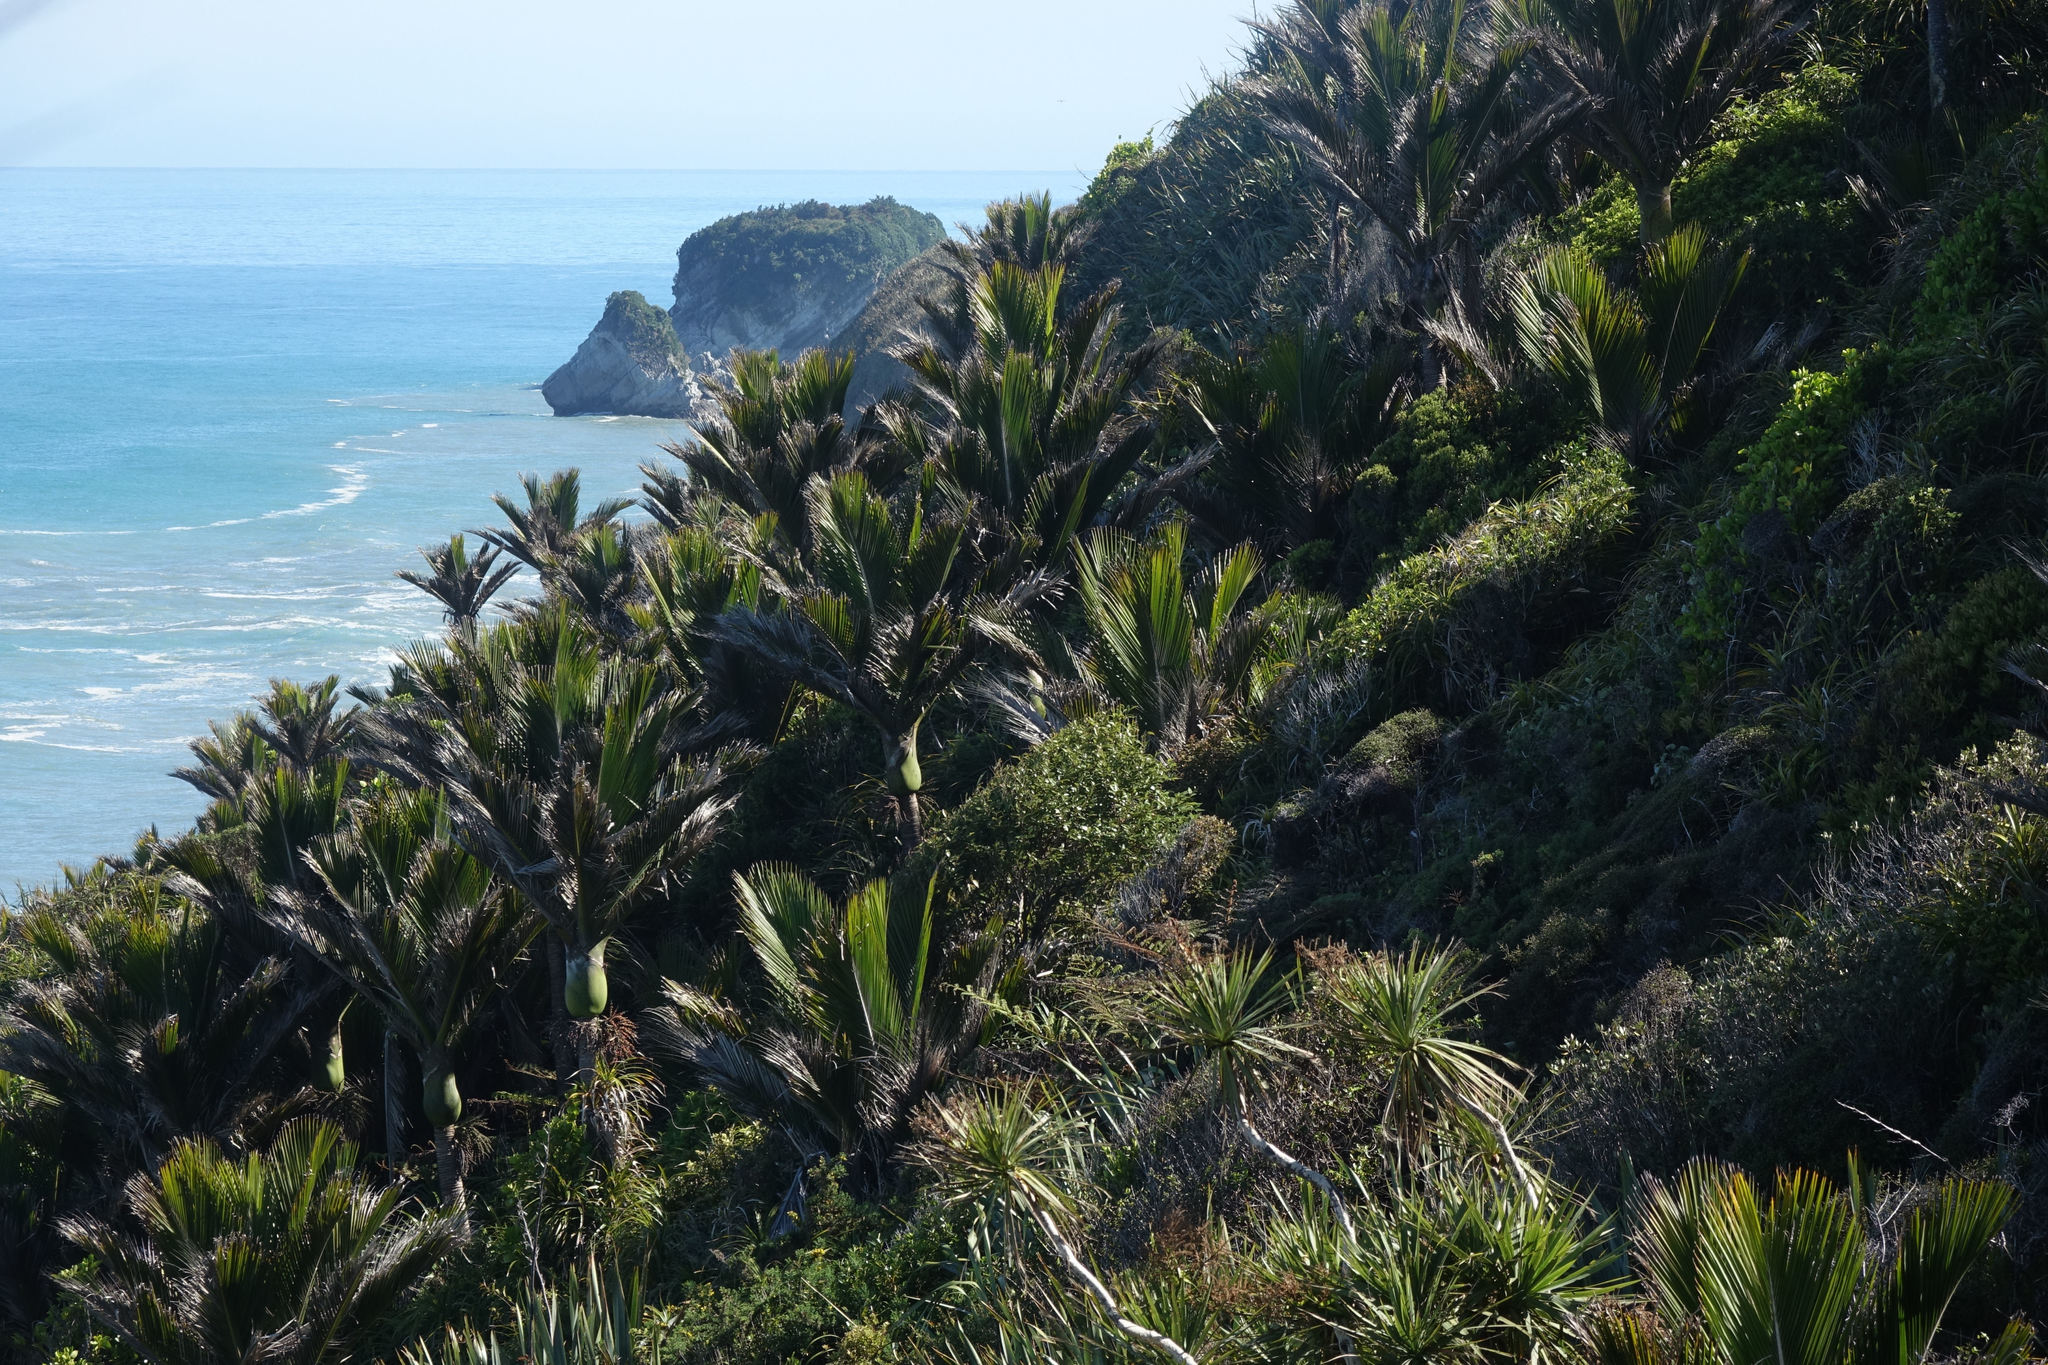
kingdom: Plantae
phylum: Tracheophyta
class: Liliopsida
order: Arecales
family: Arecaceae
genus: Rhopalostylis
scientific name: Rhopalostylis sapida
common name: Feather-duster palm
